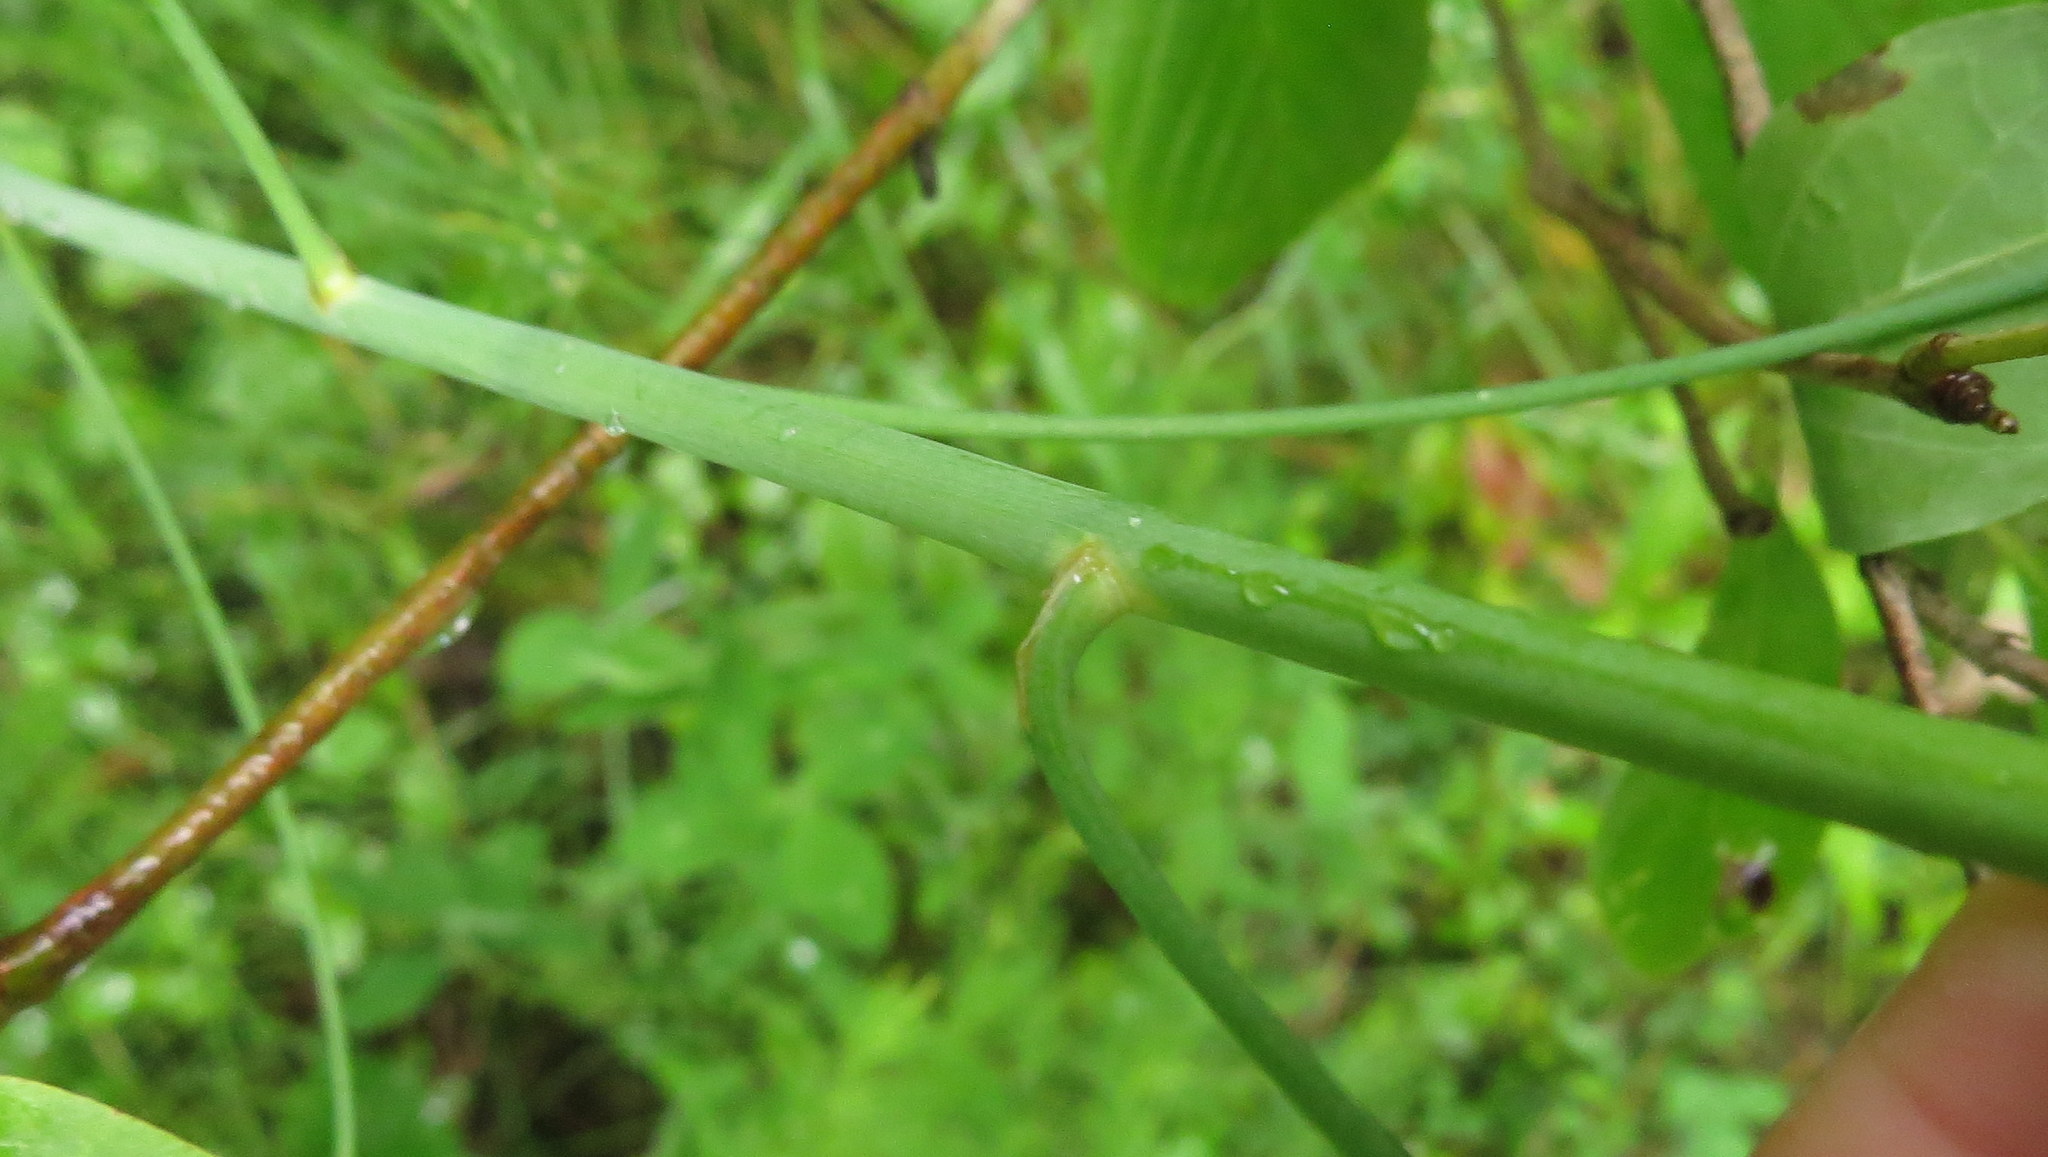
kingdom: Plantae
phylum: Tracheophyta
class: Liliopsida
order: Asparagales
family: Asparagaceae
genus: Asparagus
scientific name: Asparagus officinalis
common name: Garden asparagus
